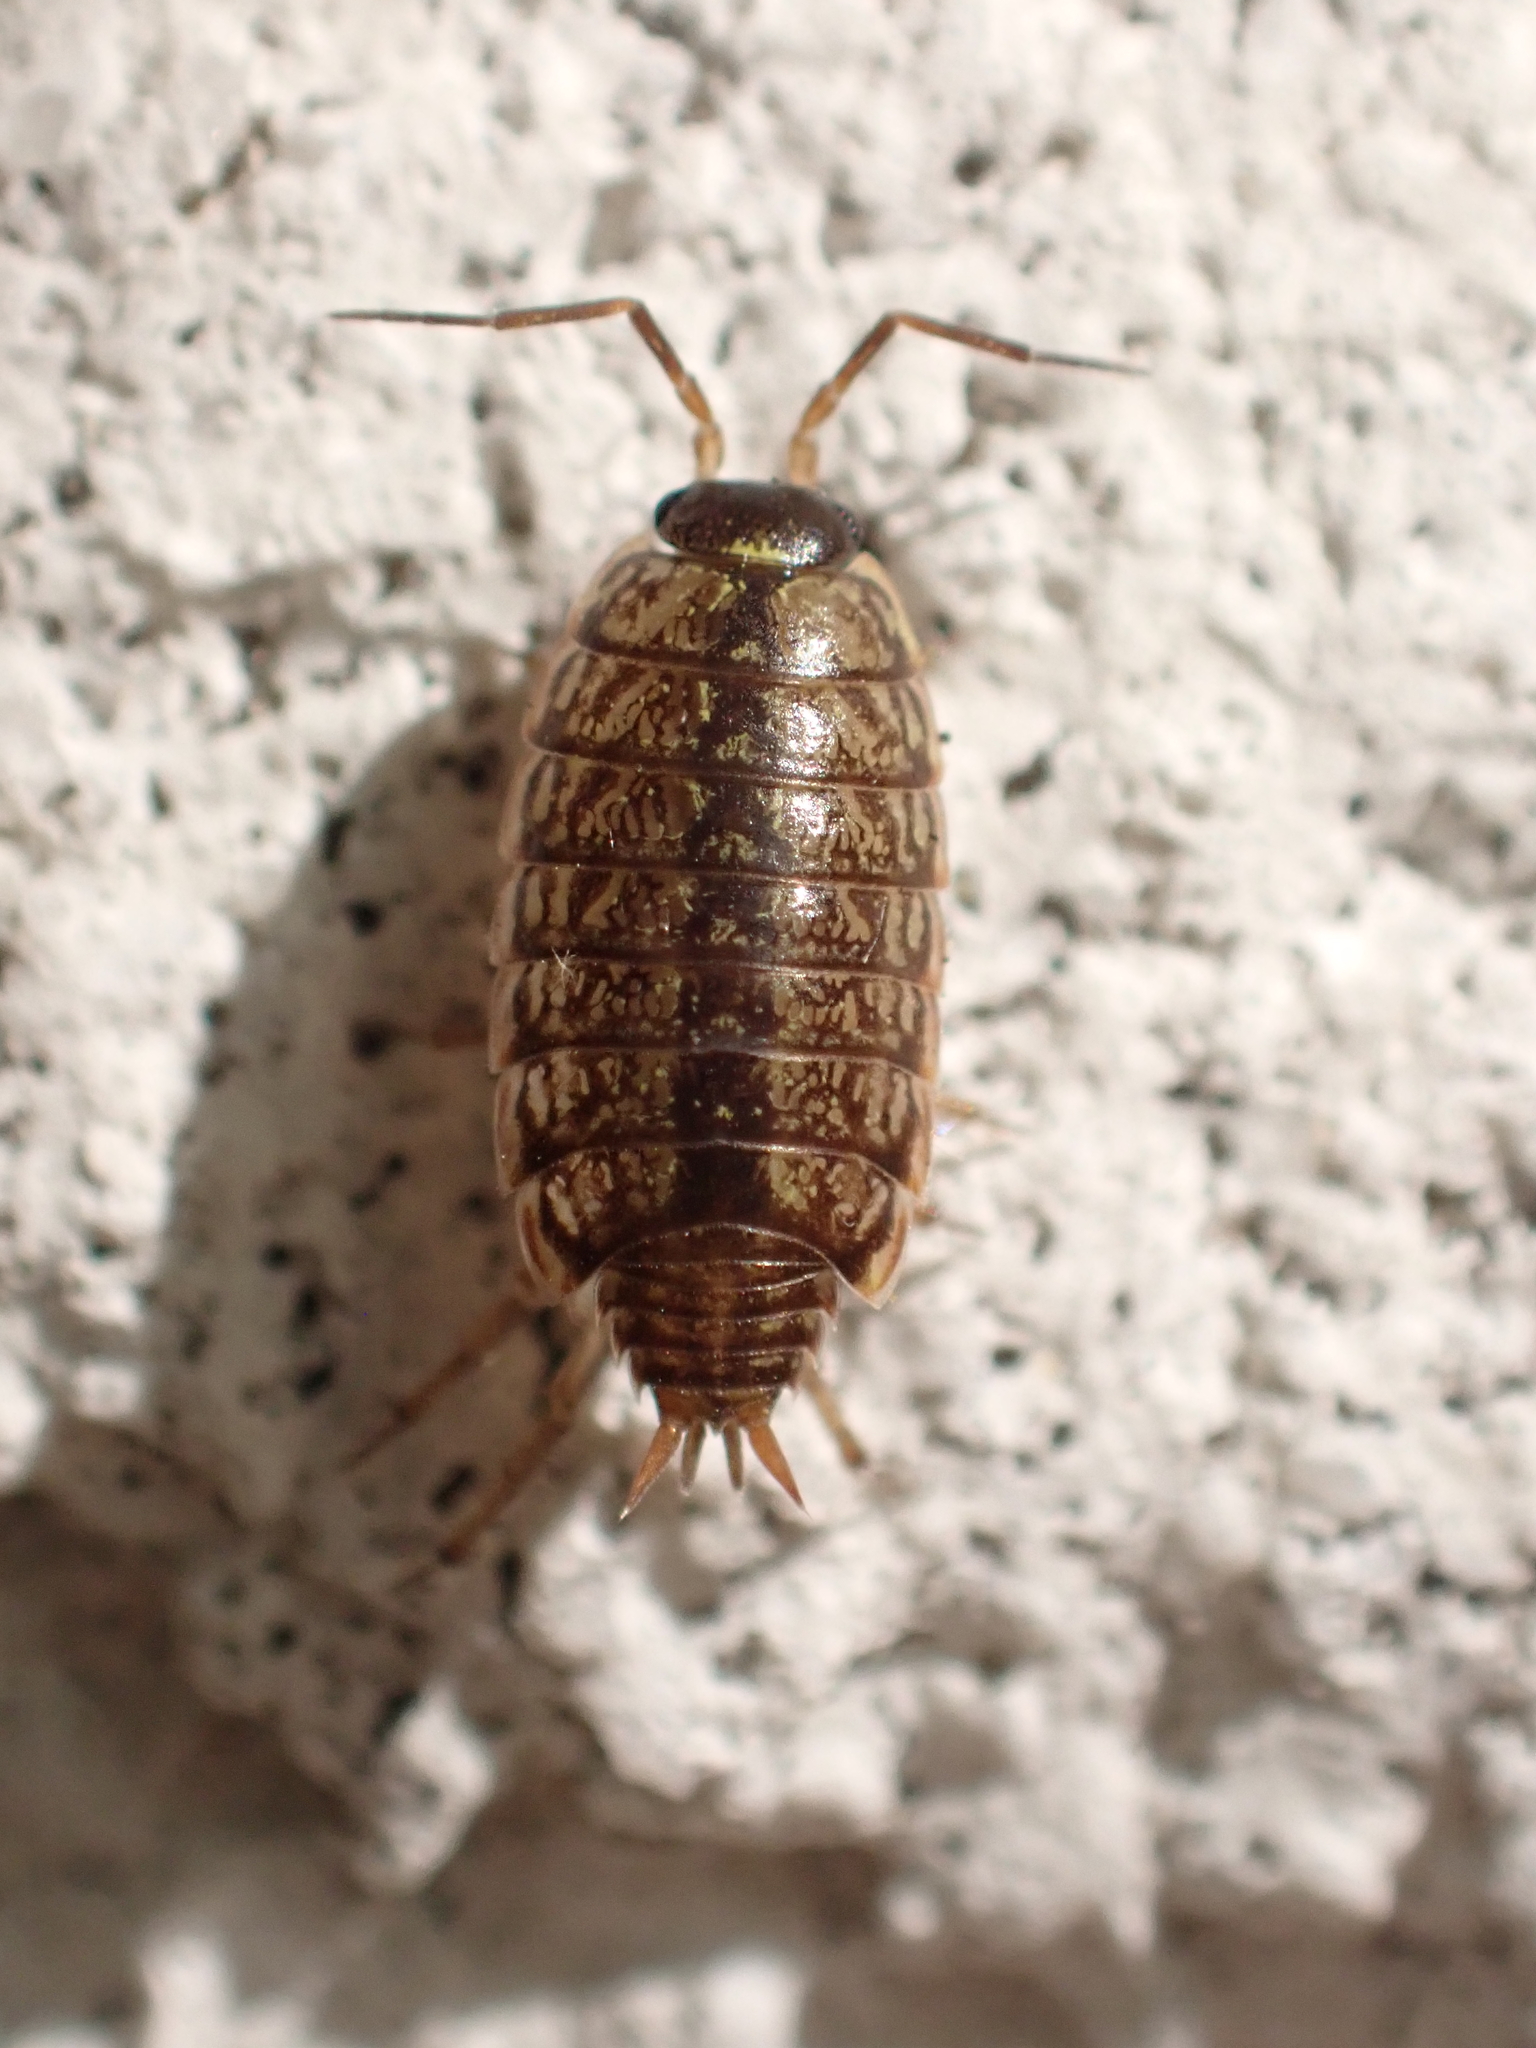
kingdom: Animalia
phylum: Arthropoda
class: Malacostraca
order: Isopoda
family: Philosciidae
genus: Philoscia
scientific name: Philoscia muscorum
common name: Common striped woodlouse
